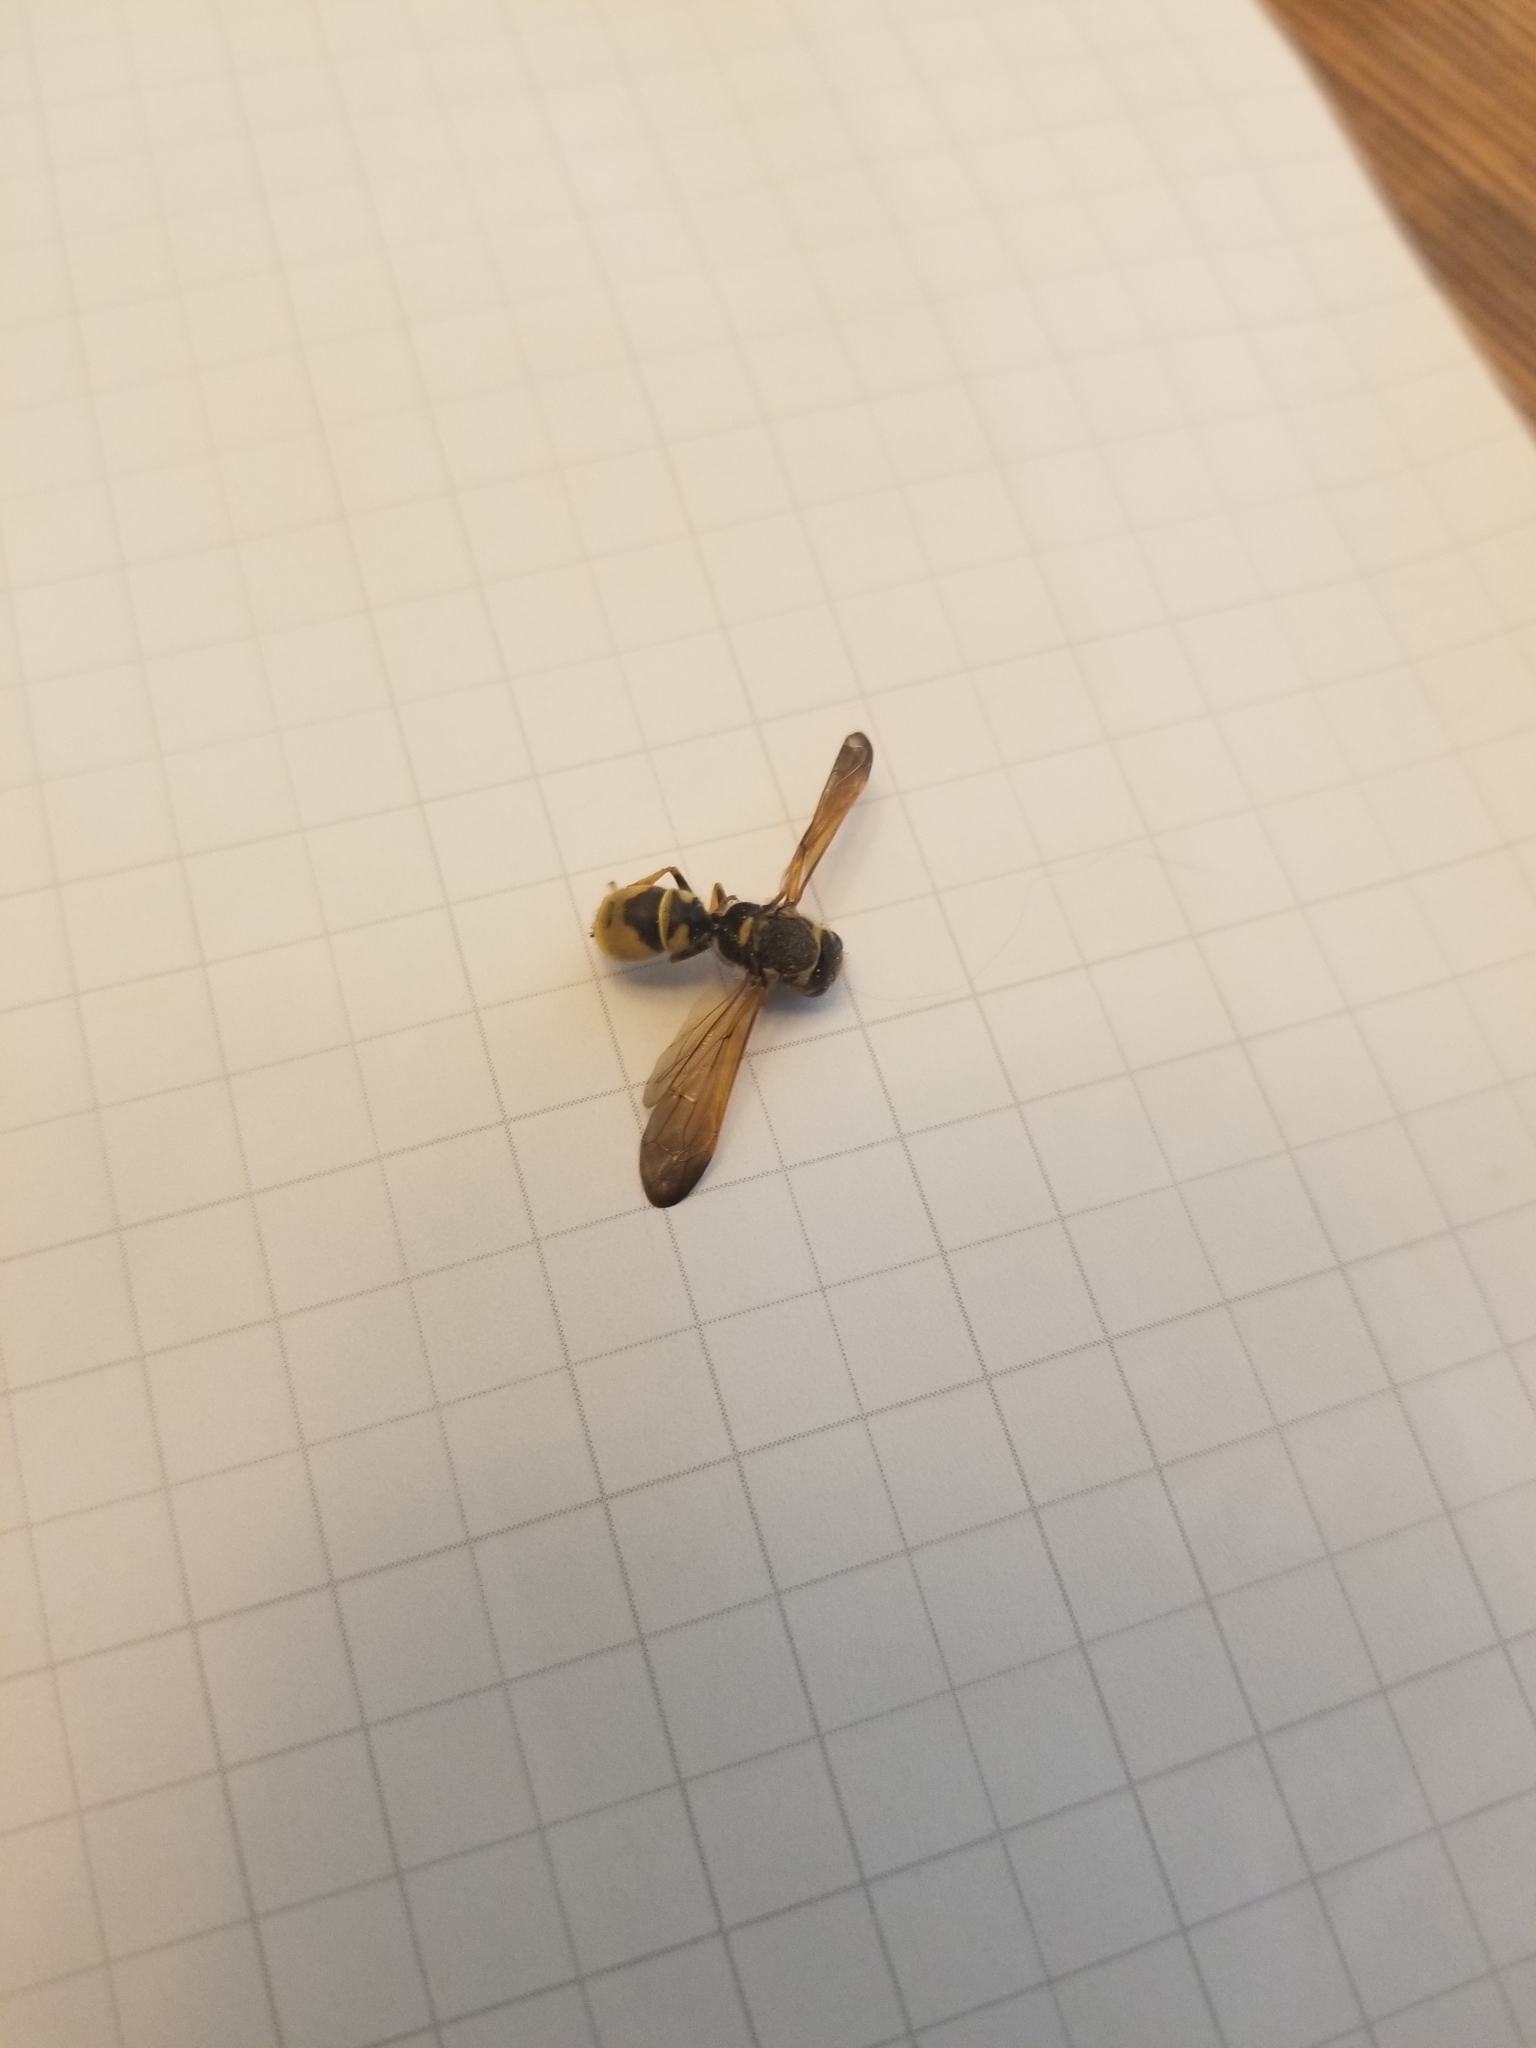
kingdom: Animalia
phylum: Arthropoda
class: Insecta
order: Hymenoptera
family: Vespidae
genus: Ancistrocerus
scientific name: Ancistrocerus
